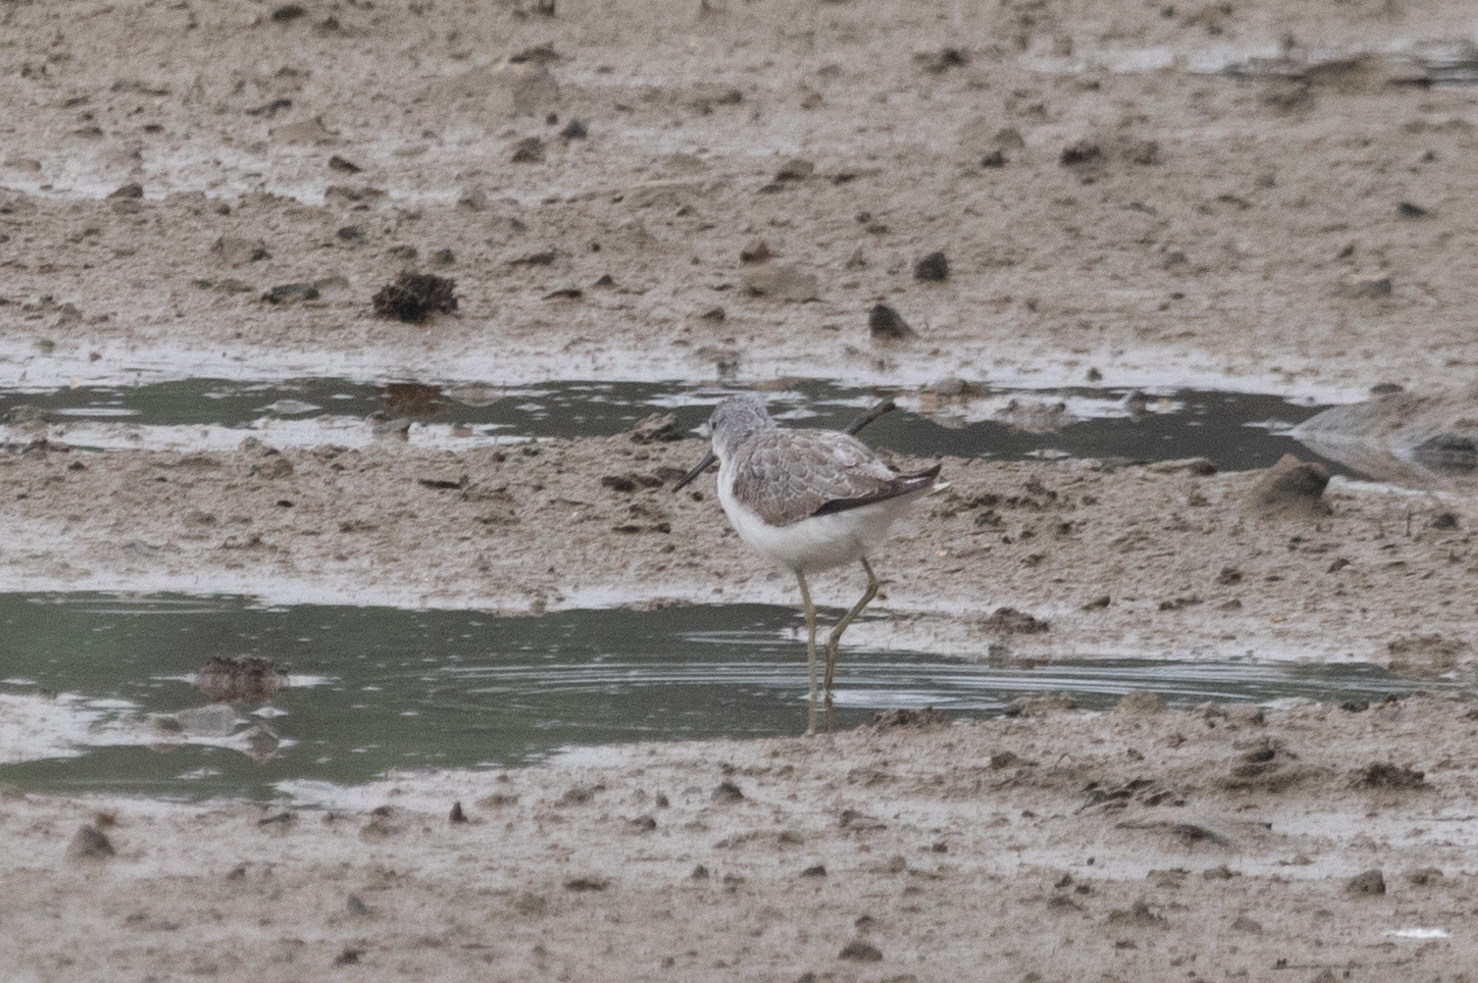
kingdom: Animalia
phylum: Chordata
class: Aves
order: Charadriiformes
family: Scolopacidae
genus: Tringa
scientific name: Tringa nebularia
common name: Common greenshank
